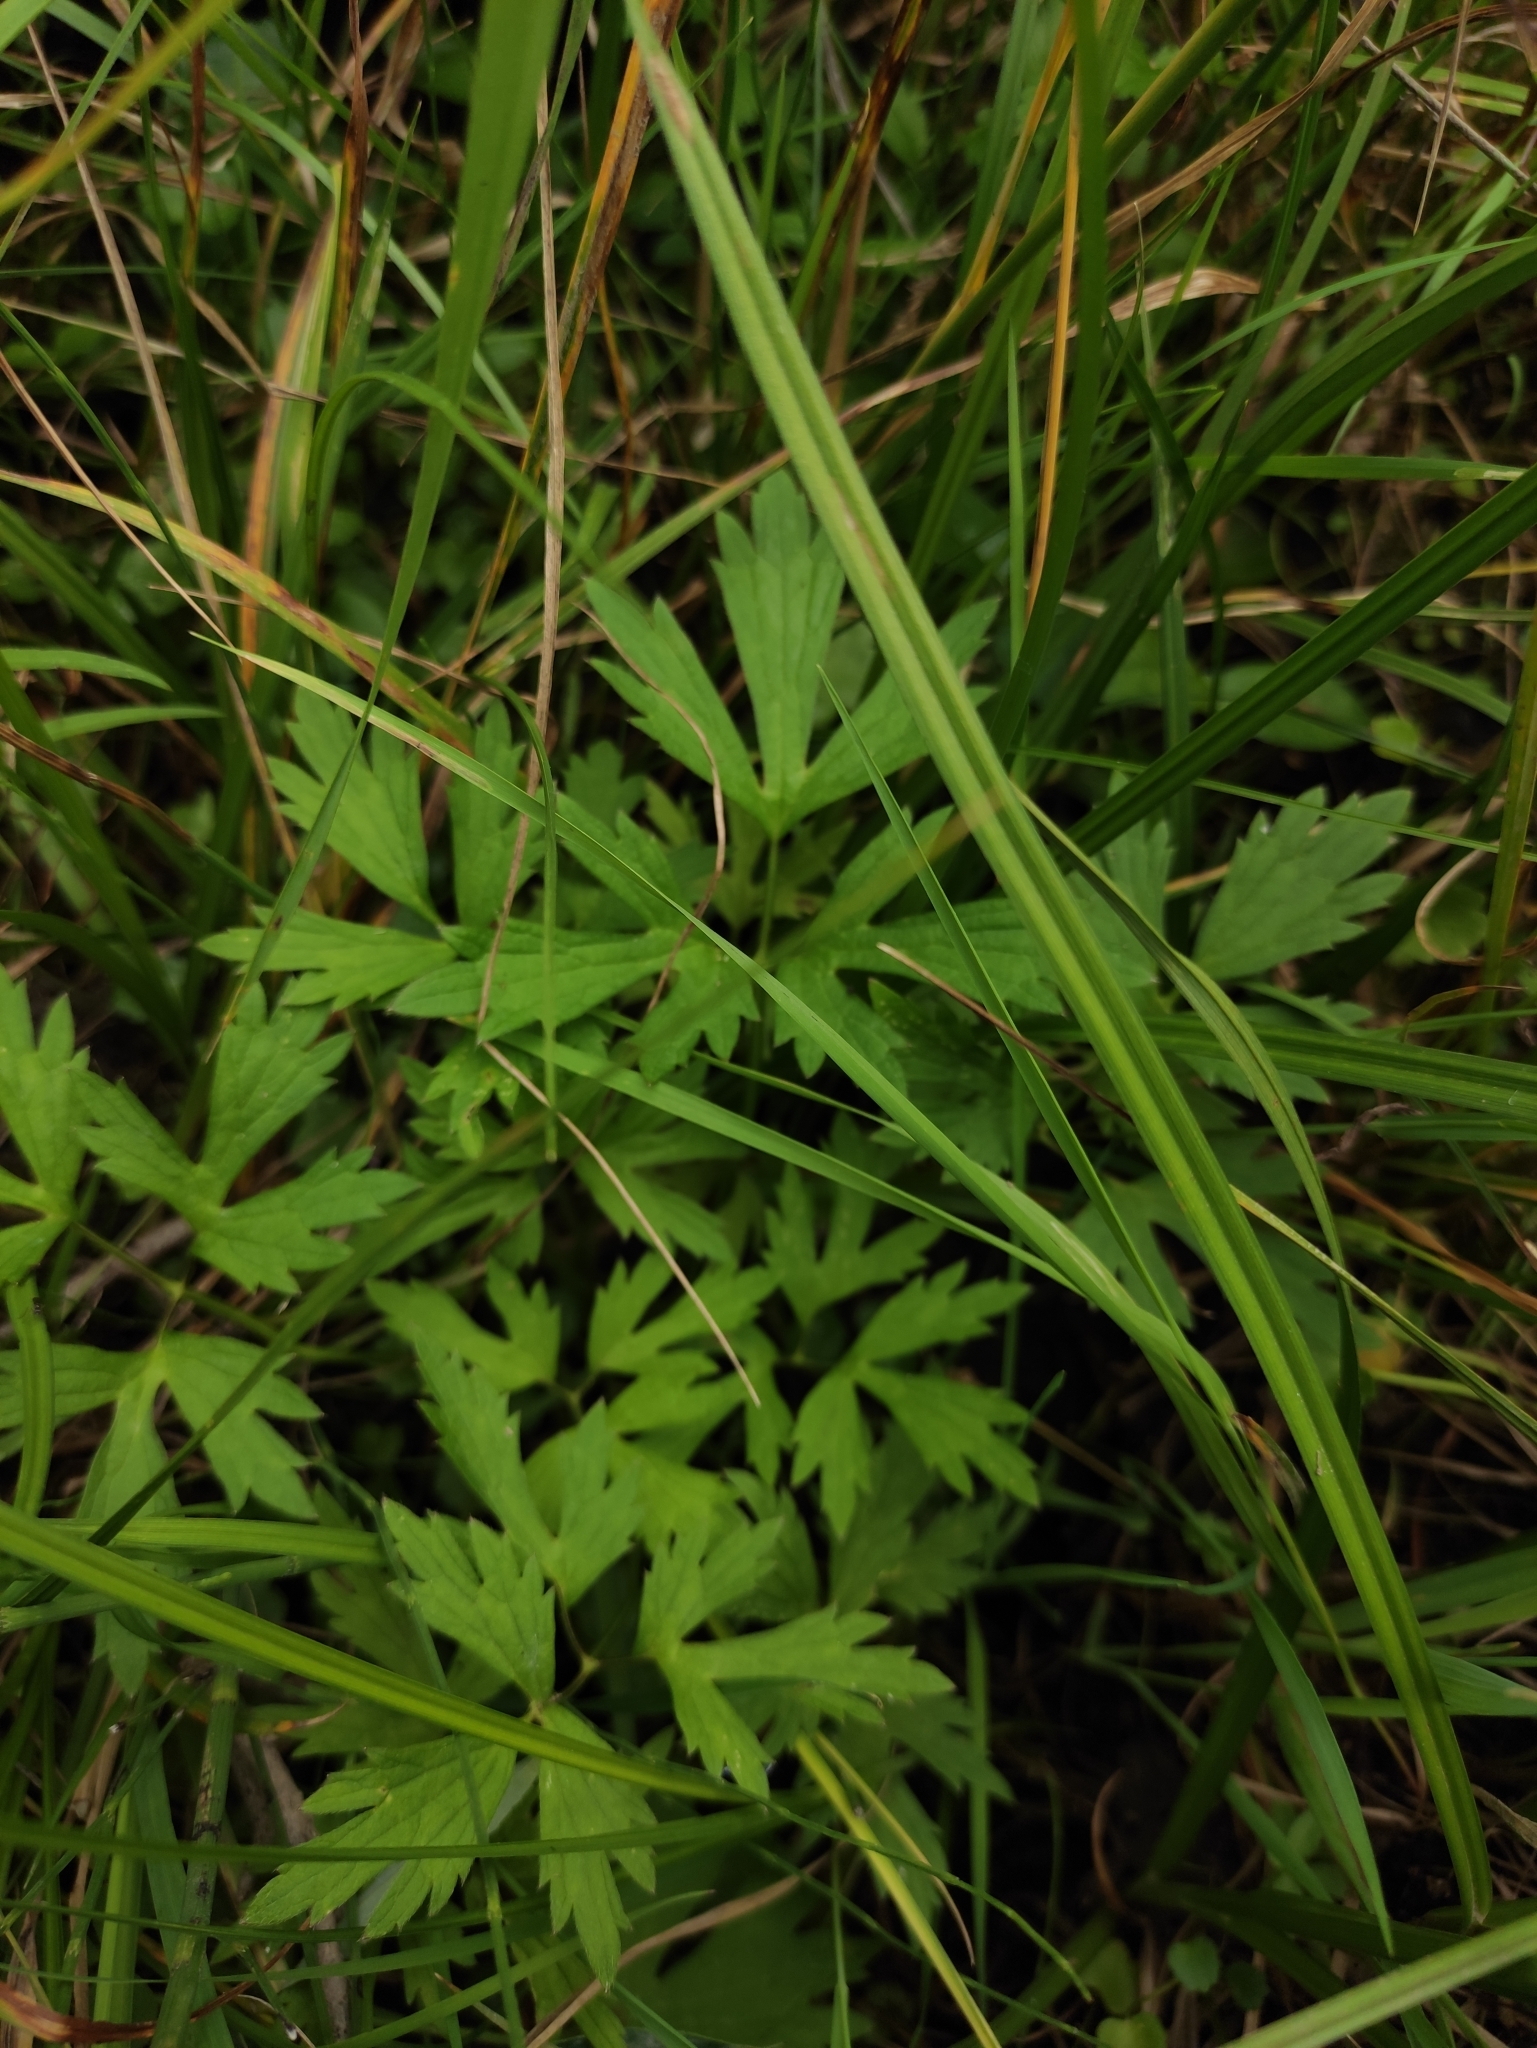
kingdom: Plantae
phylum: Tracheophyta
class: Magnoliopsida
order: Ranunculales
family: Ranunculaceae
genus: Ranunculus
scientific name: Ranunculus repens
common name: Creeping buttercup
